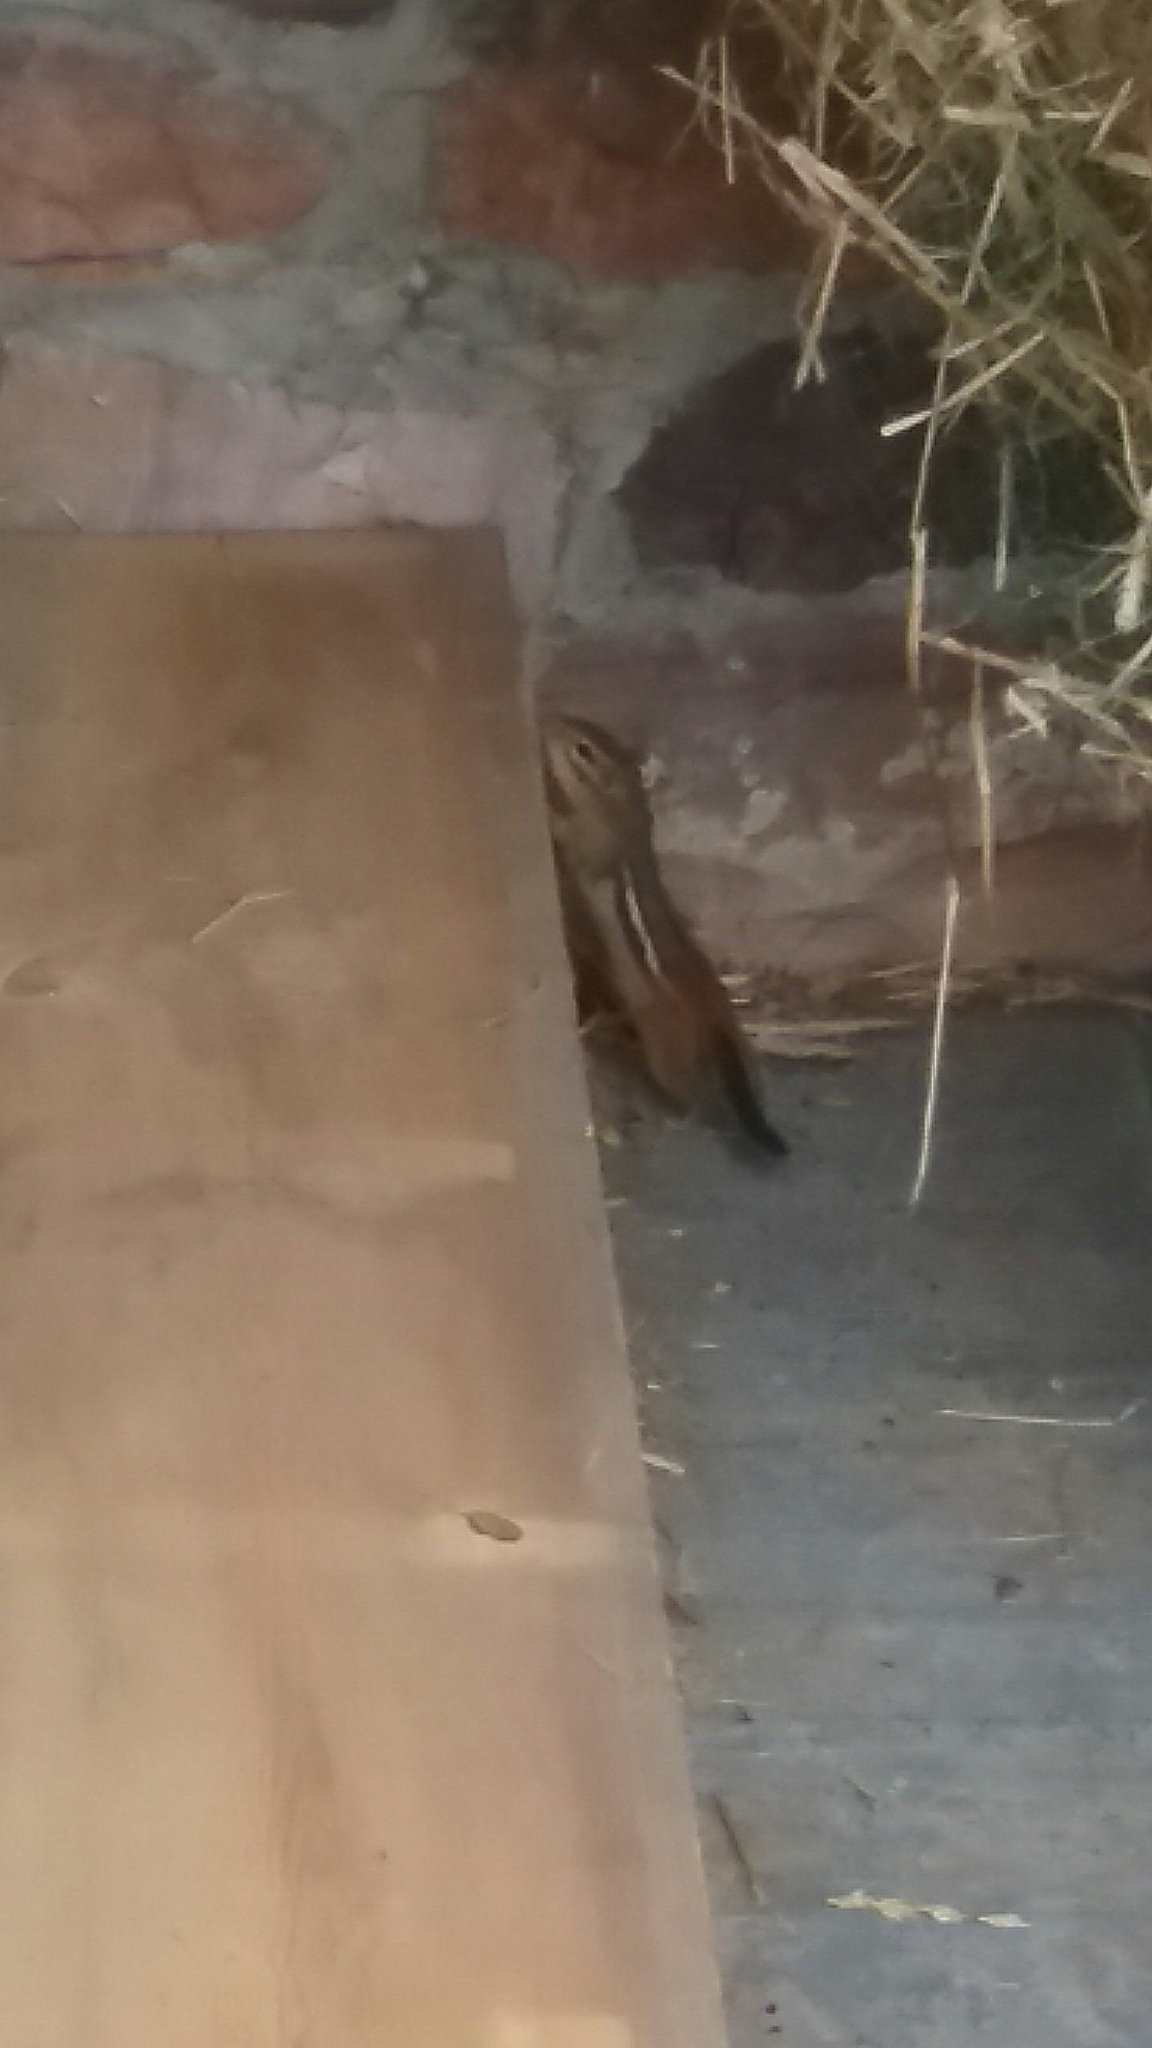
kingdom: Animalia
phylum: Chordata
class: Mammalia
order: Rodentia
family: Sciuridae
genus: Tamias
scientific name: Tamias striatus
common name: Eastern chipmunk
